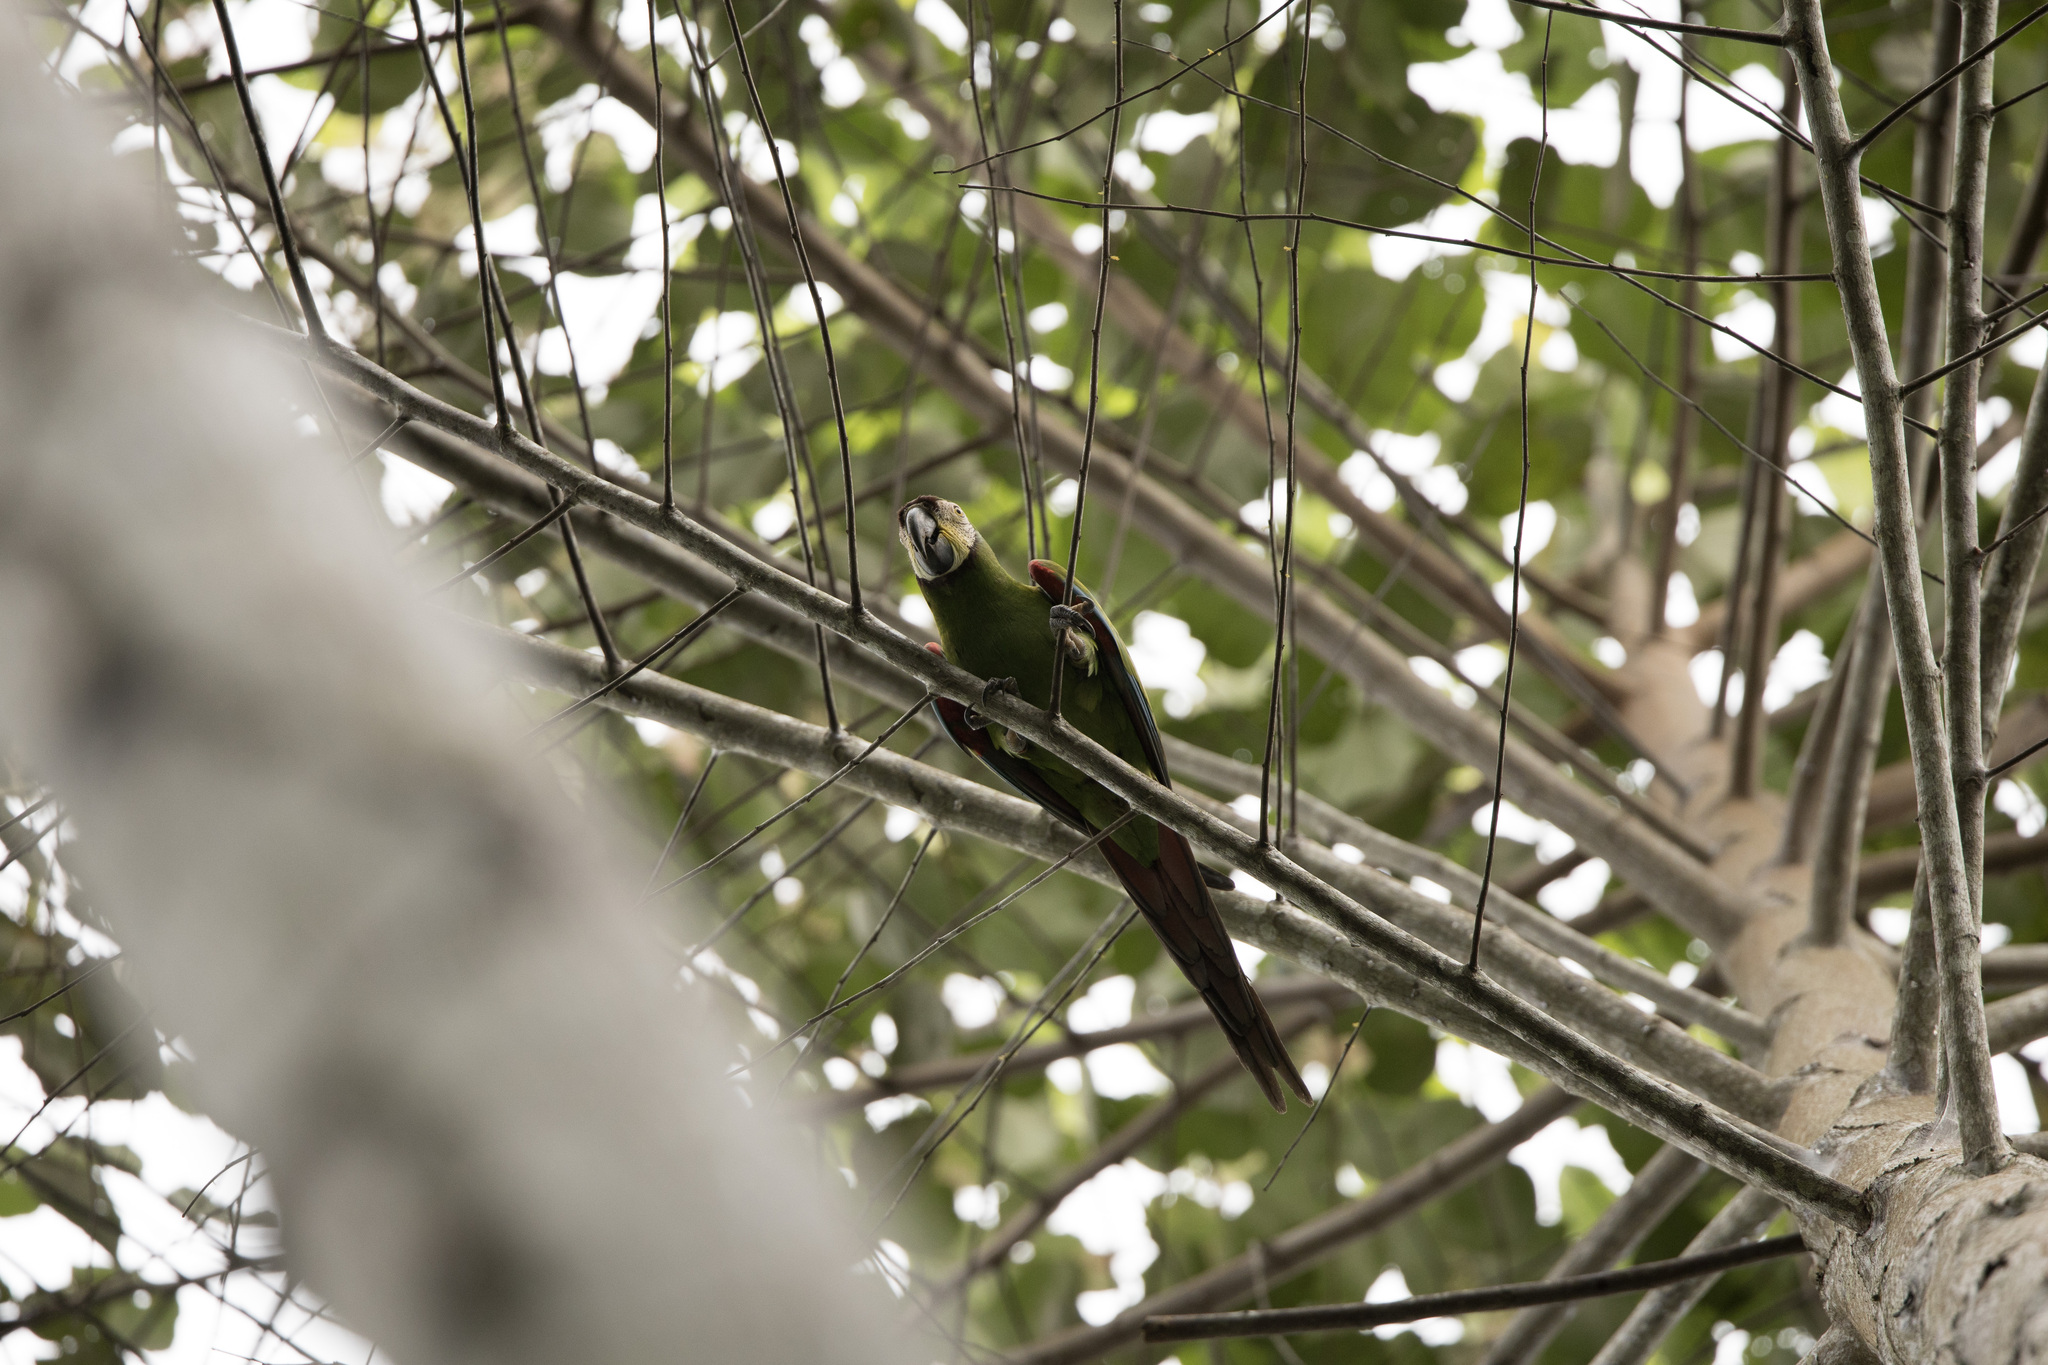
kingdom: Animalia
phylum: Chordata
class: Aves
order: Psittaciformes
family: Psittacidae
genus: Ara
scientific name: Ara severus
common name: Chestnut-fronted macaw
